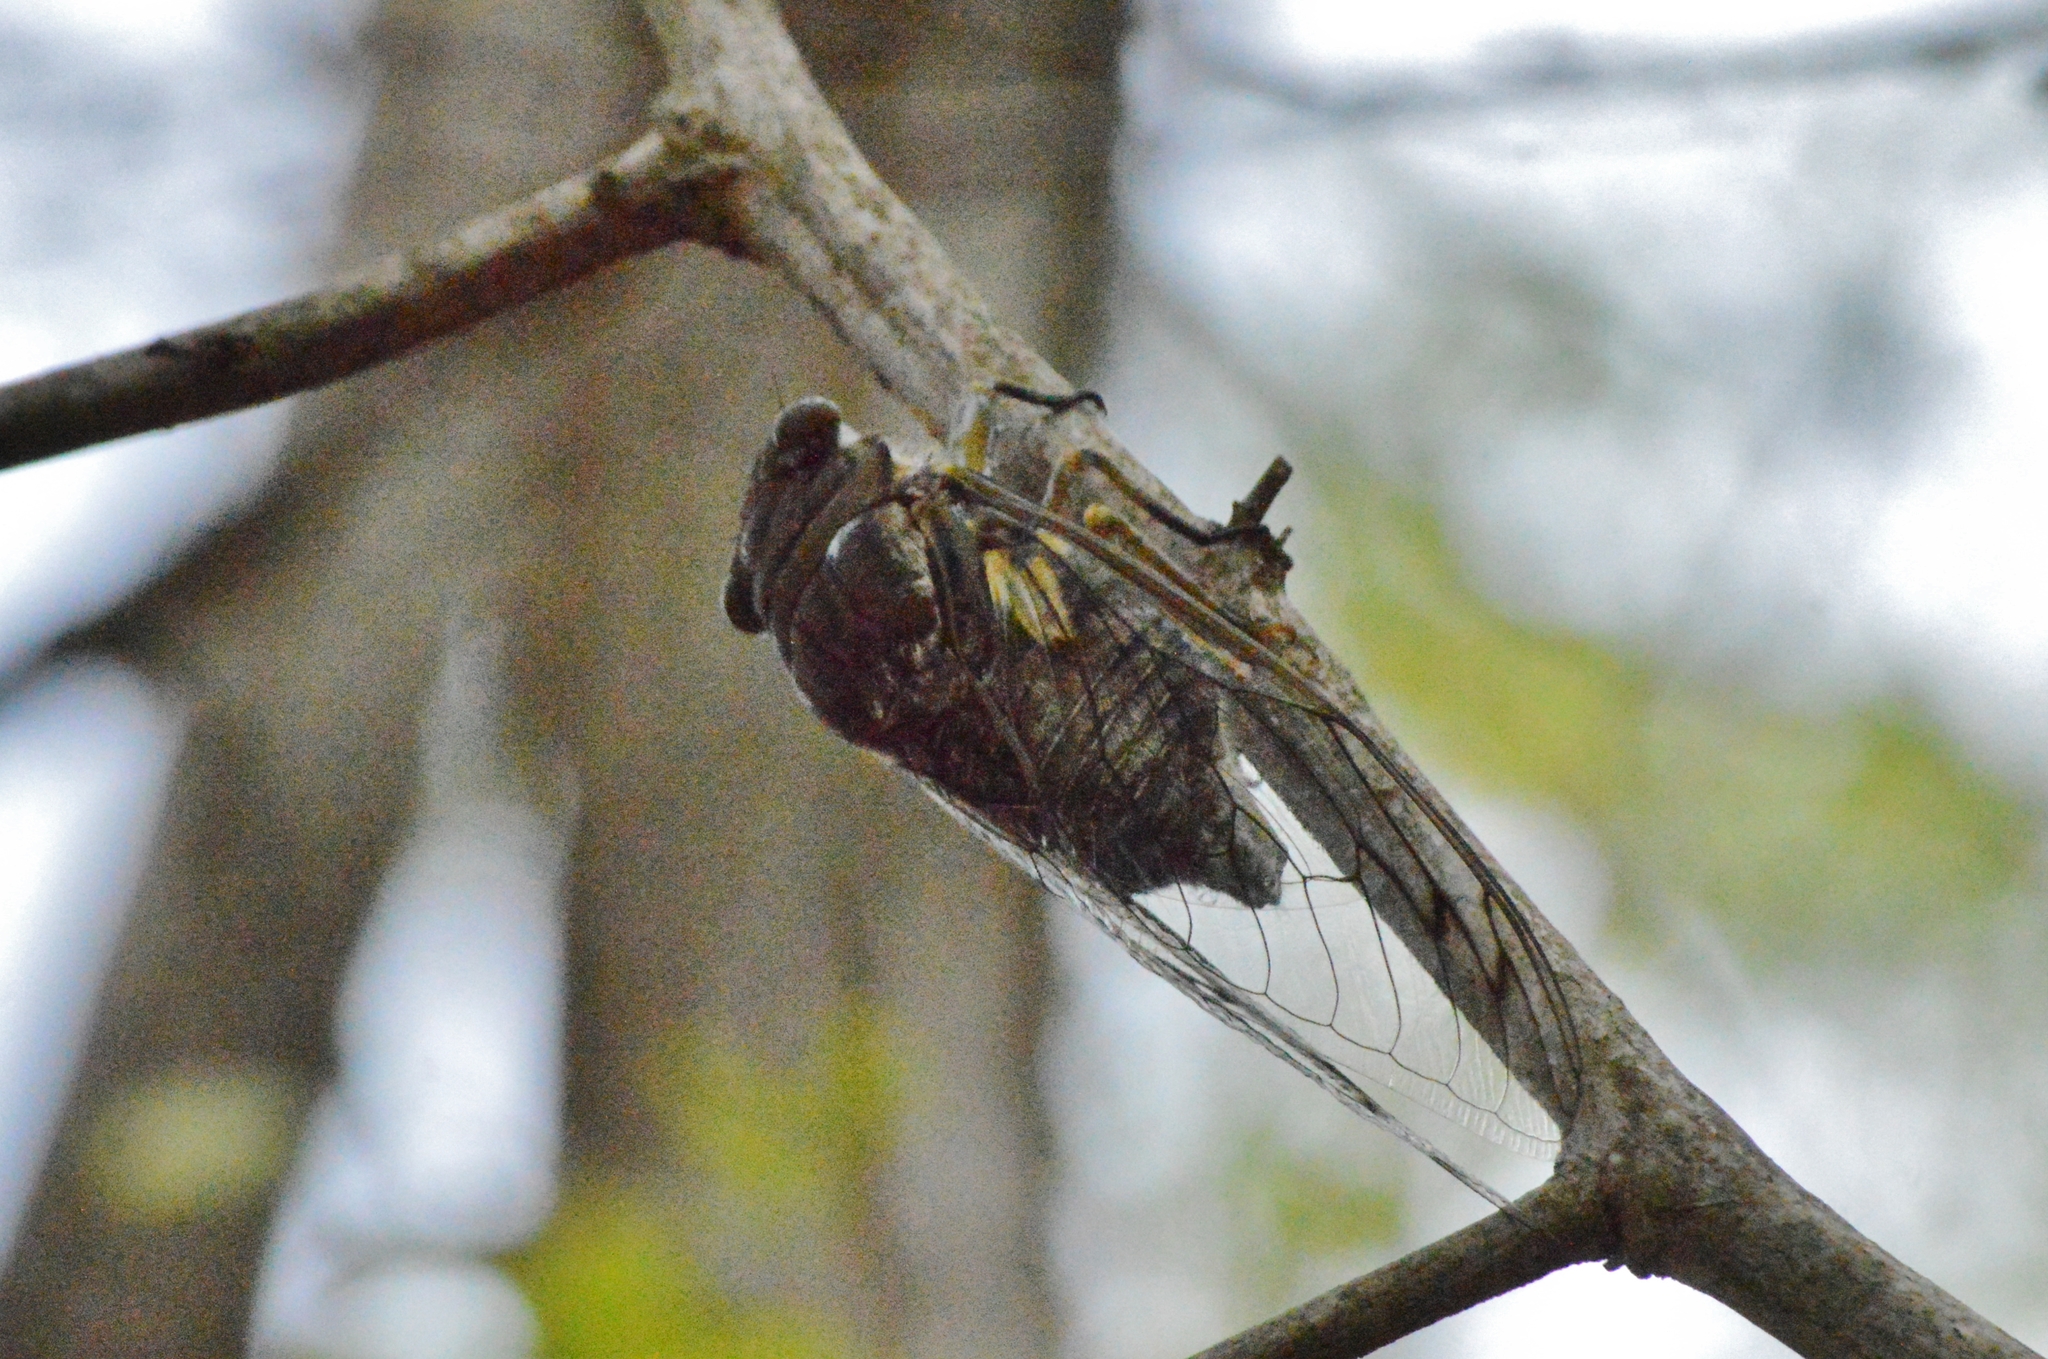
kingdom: Animalia
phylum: Arthropoda
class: Insecta
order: Hemiptera
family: Cicadidae
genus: Quesada
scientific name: Quesada gigas
